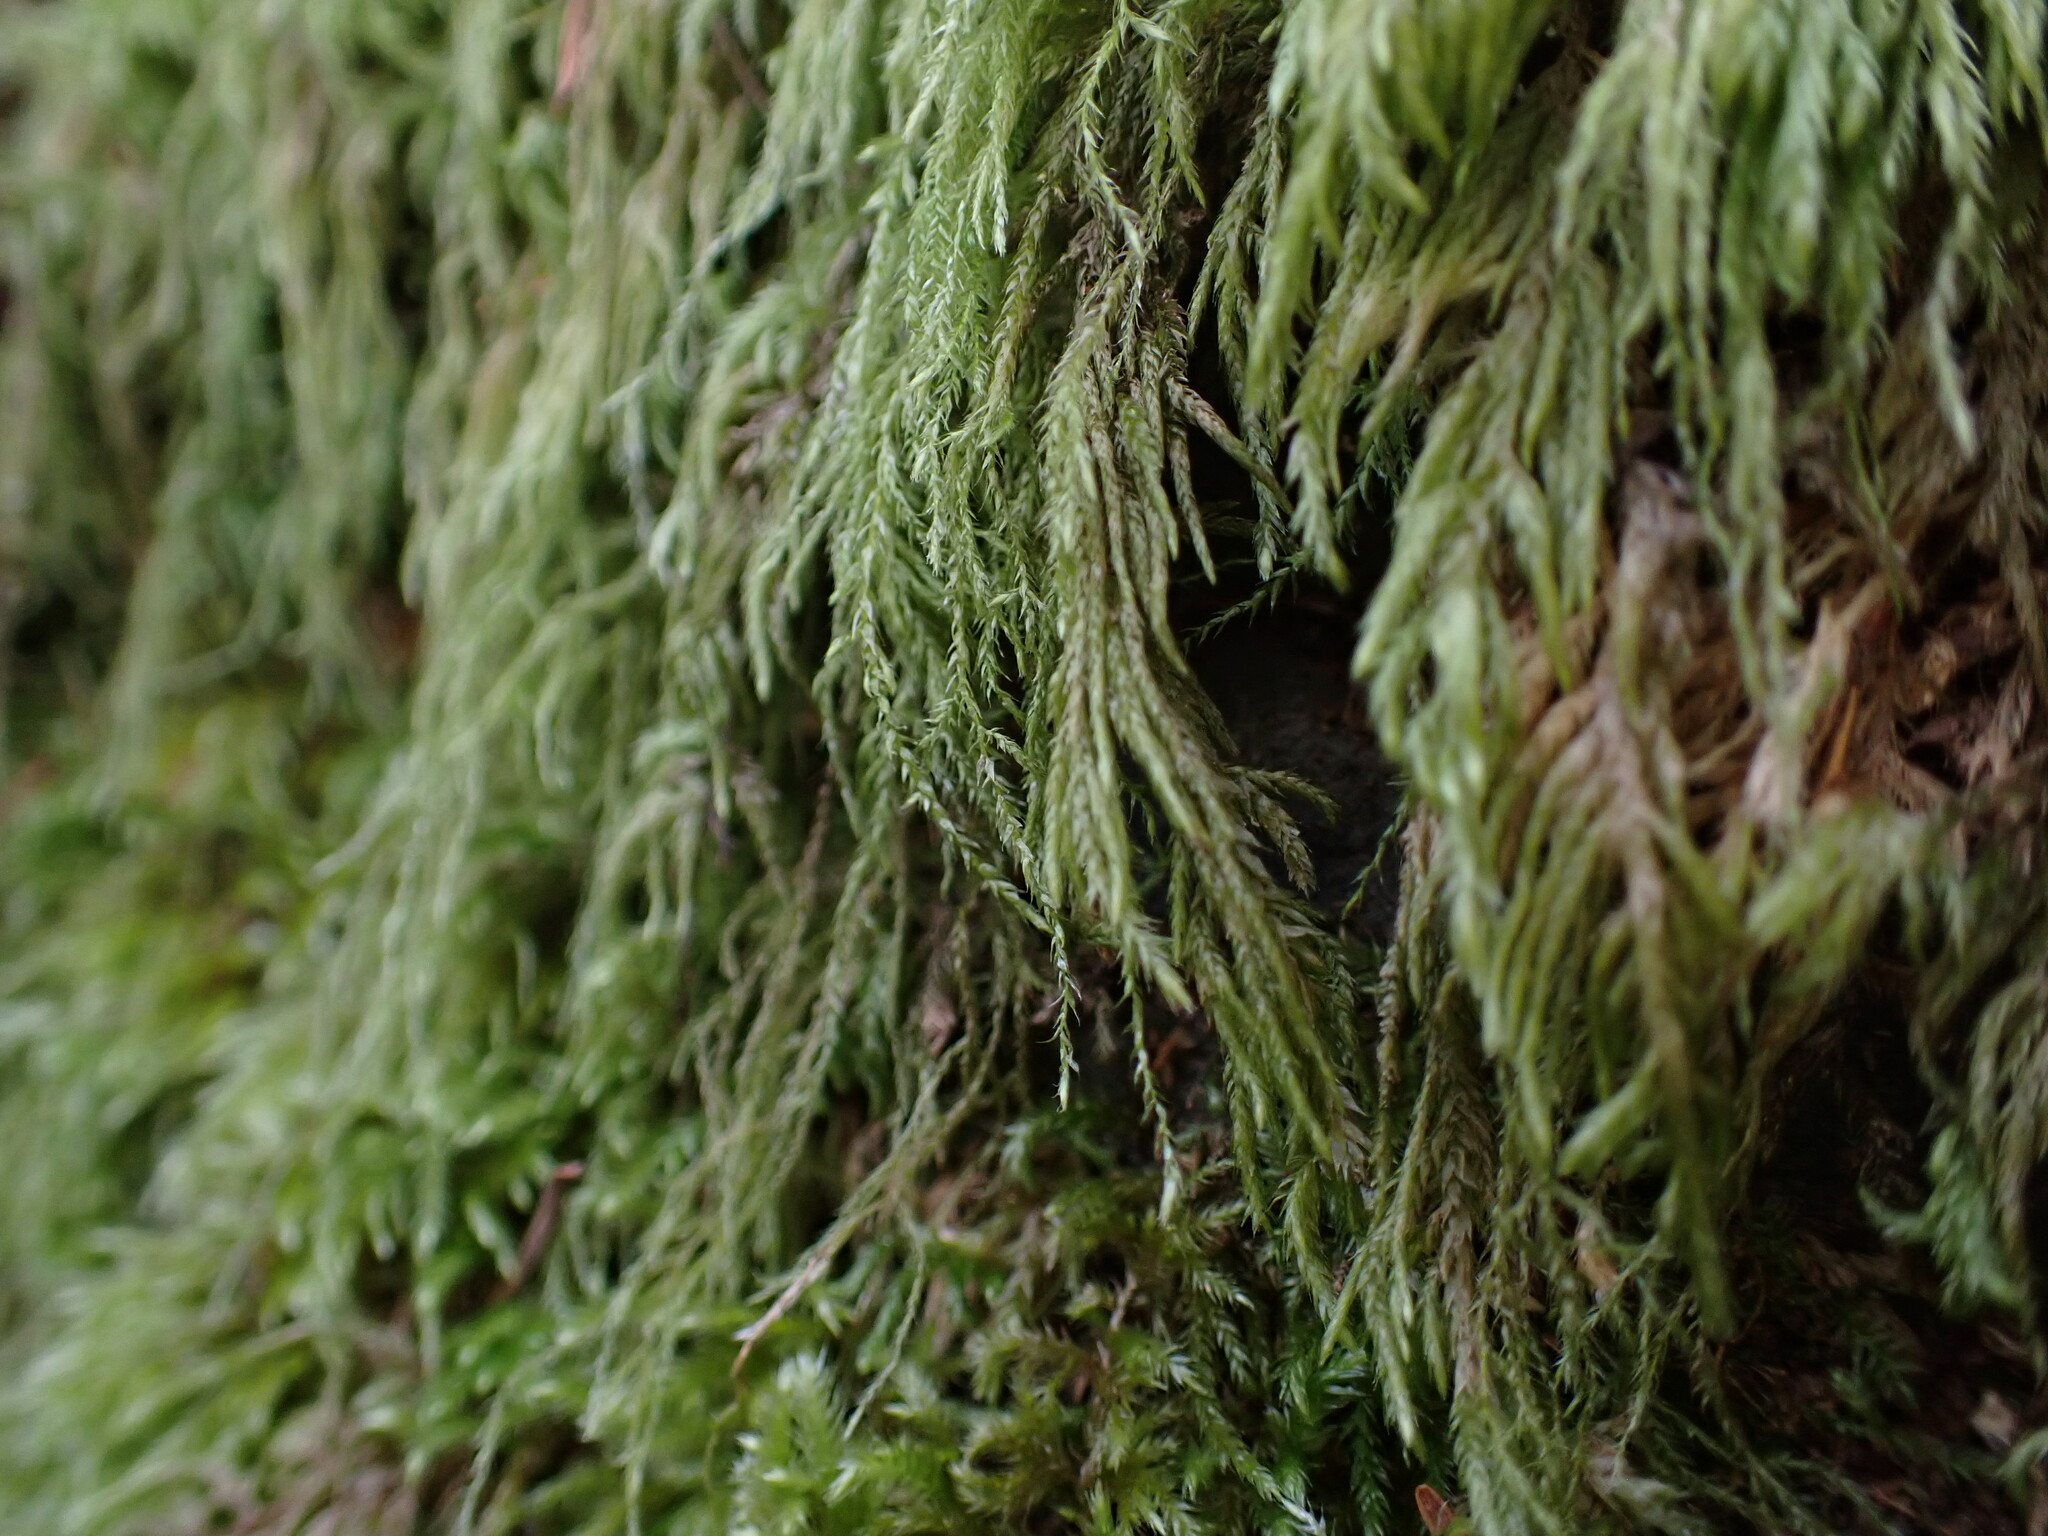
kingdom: Plantae
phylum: Bryophyta
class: Bryopsida
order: Hypnales
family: Lembophyllaceae
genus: Pseudisothecium
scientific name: Pseudisothecium stoloniferum
